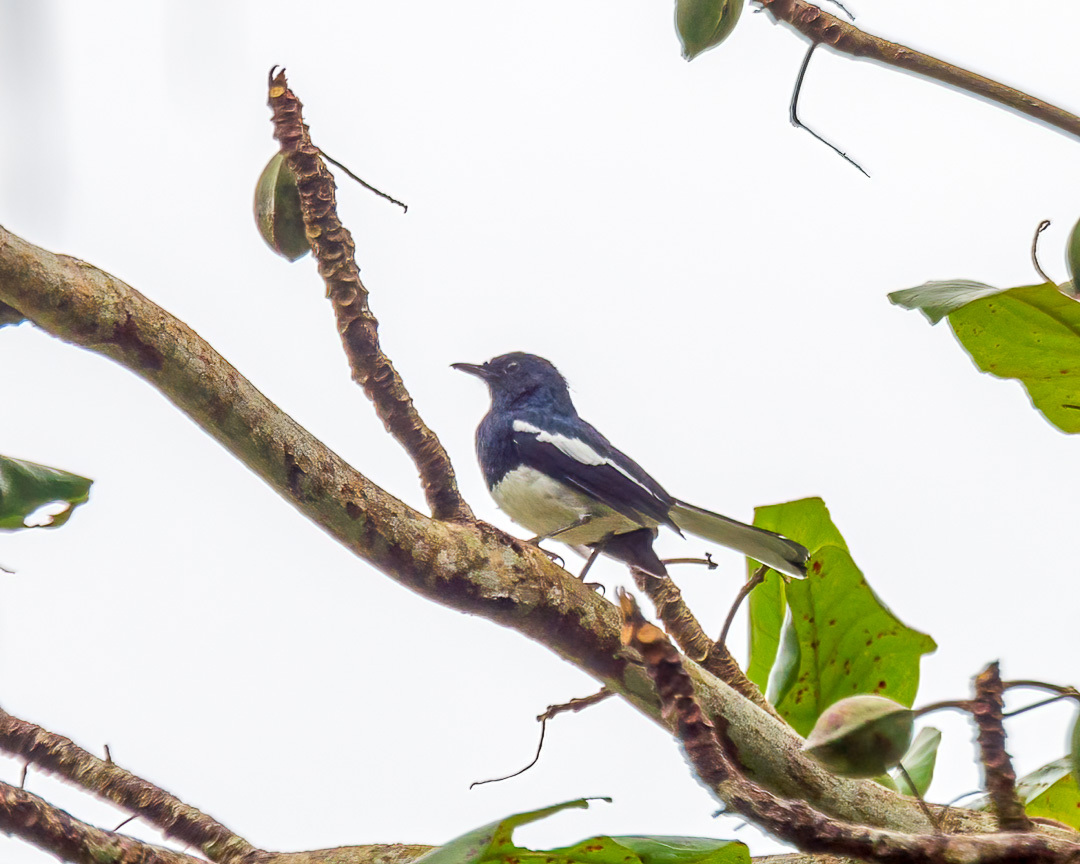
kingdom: Animalia
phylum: Chordata
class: Aves
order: Passeriformes
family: Muscicapidae
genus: Copsychus
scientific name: Copsychus saularis
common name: Oriental magpie-robin
